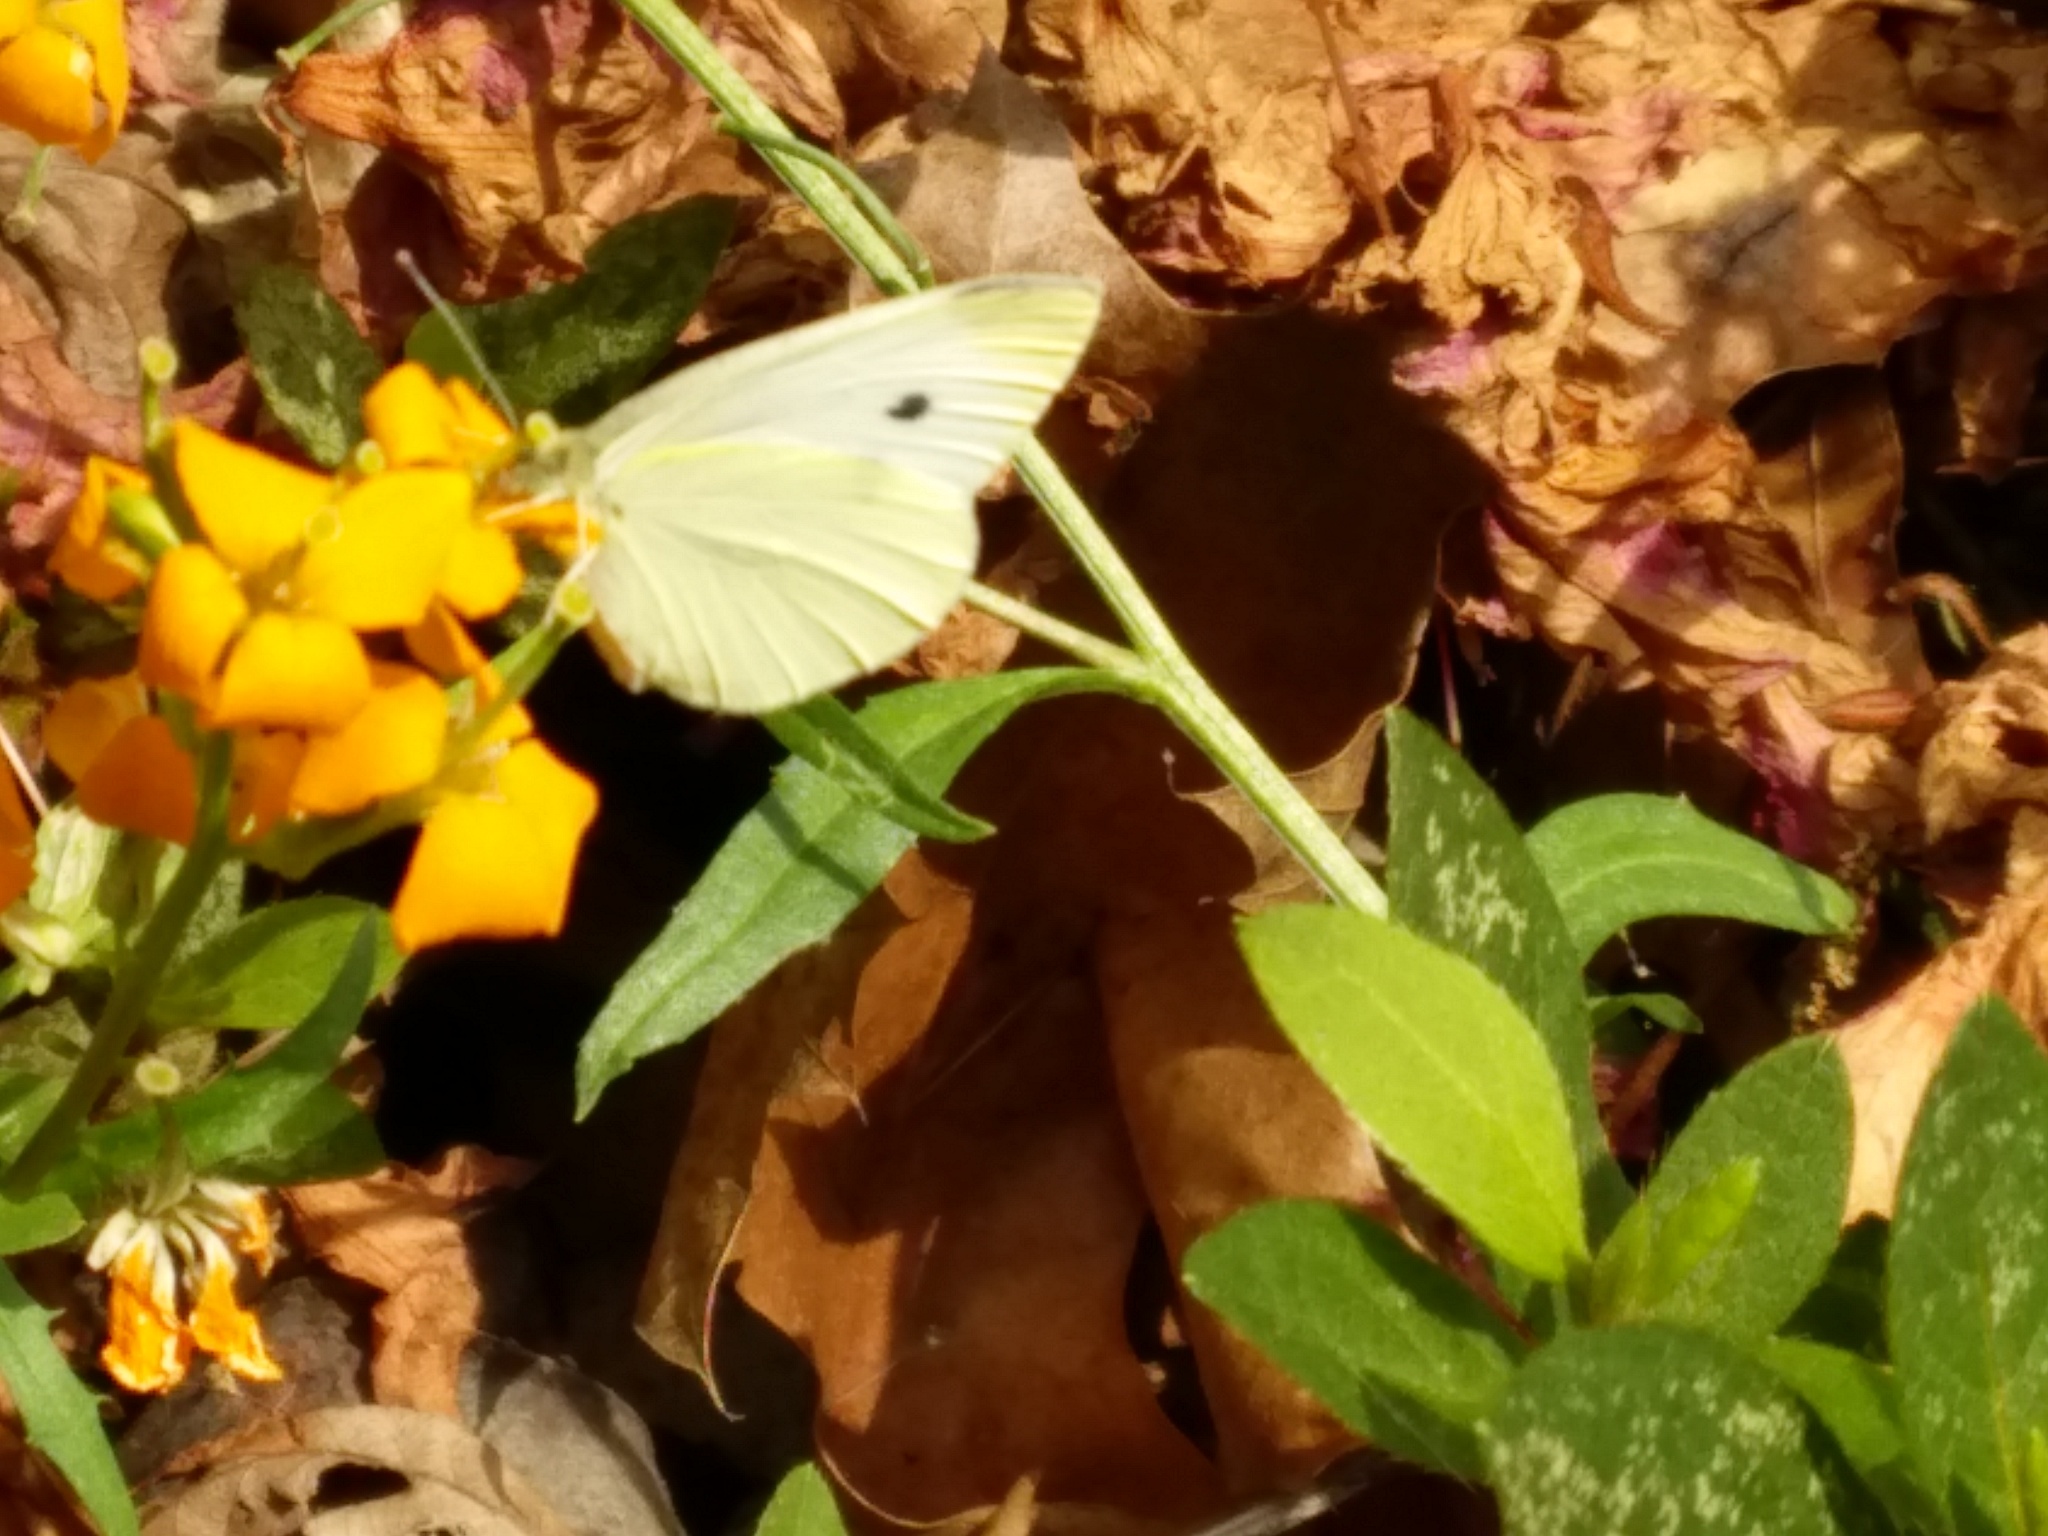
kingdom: Animalia
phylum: Arthropoda
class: Insecta
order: Lepidoptera
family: Pieridae
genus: Pieris
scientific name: Pieris rapae
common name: Small white
